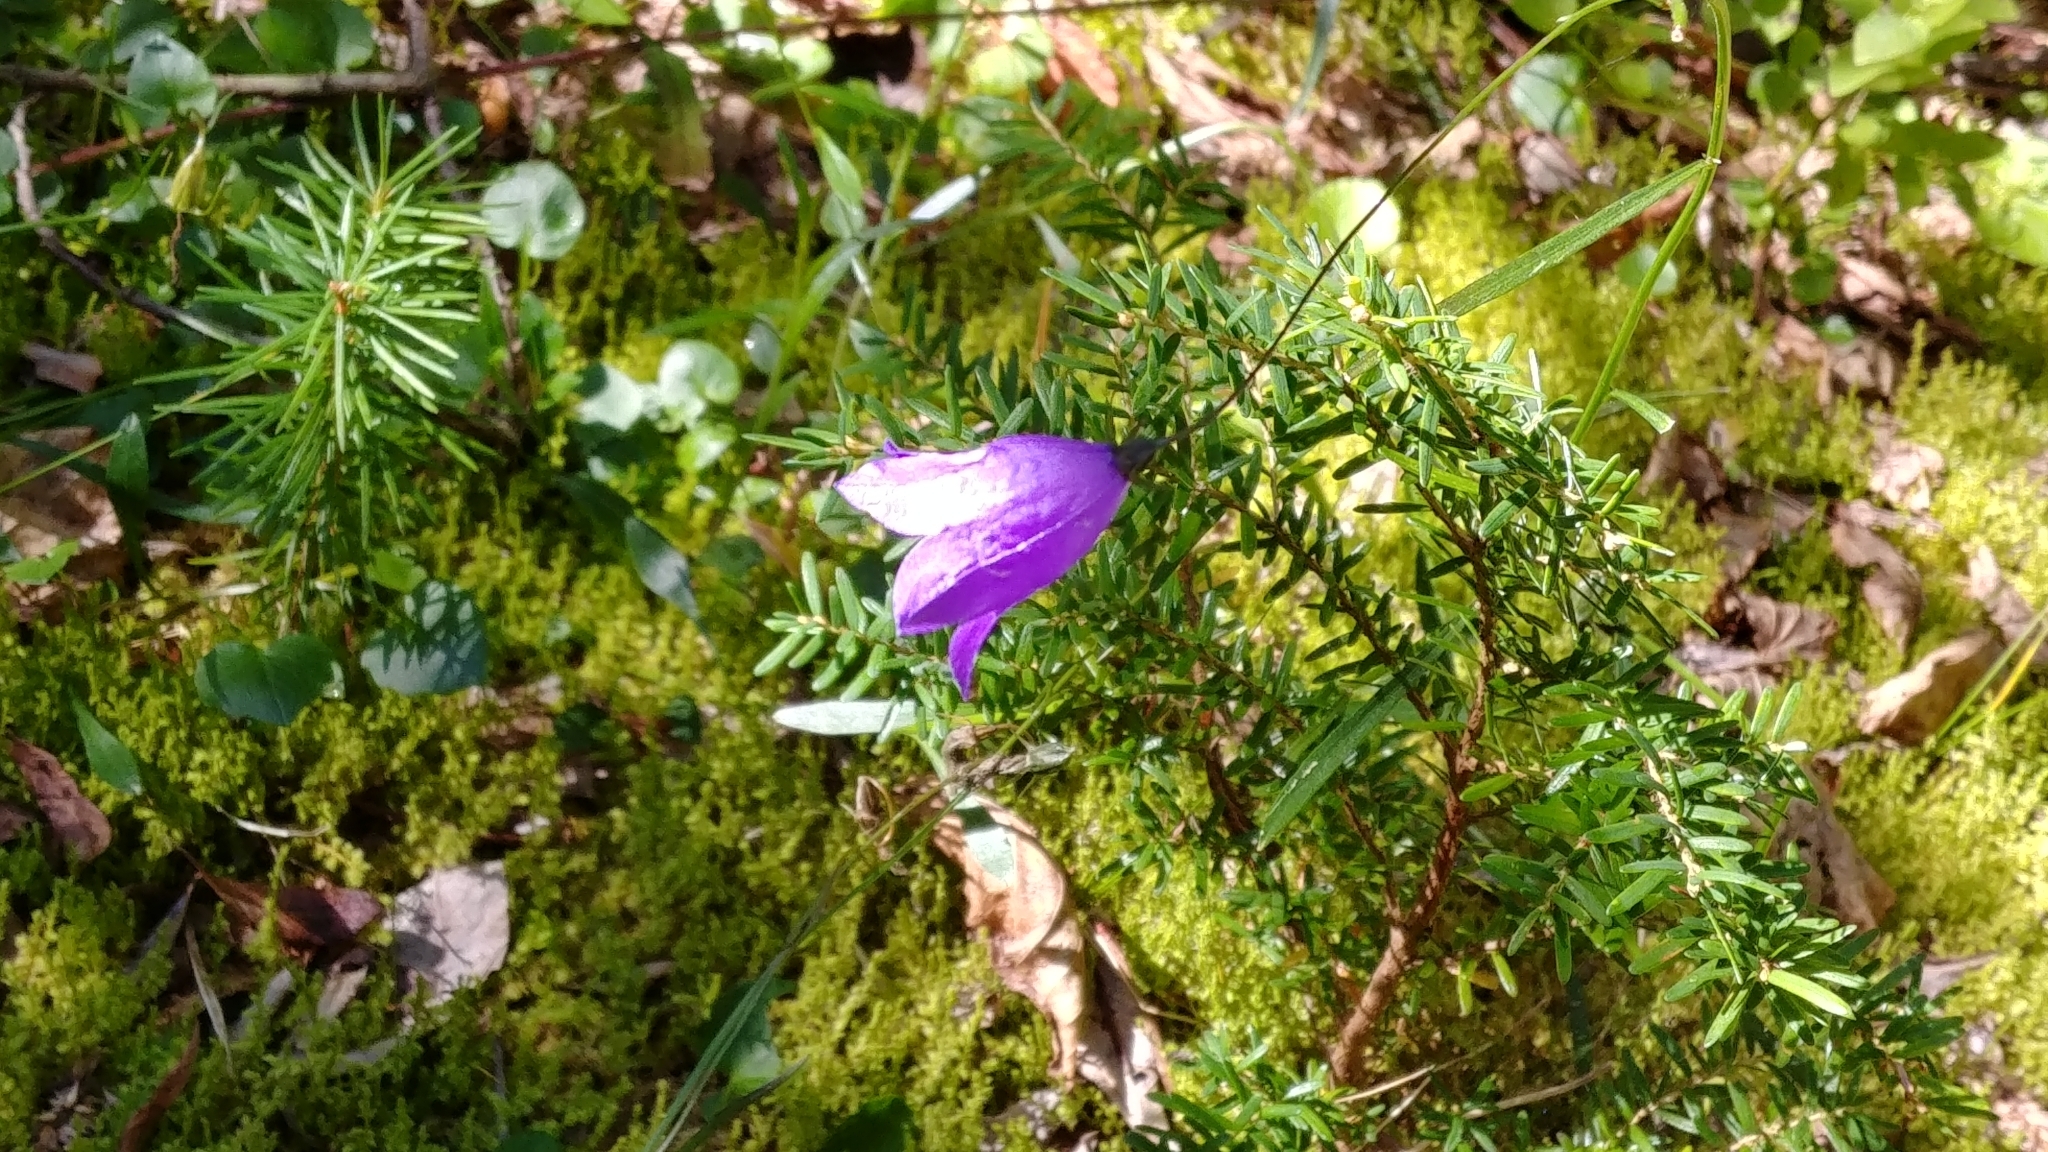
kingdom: Plantae
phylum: Tracheophyta
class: Magnoliopsida
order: Asterales
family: Campanulaceae
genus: Campanula
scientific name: Campanula alaskana
